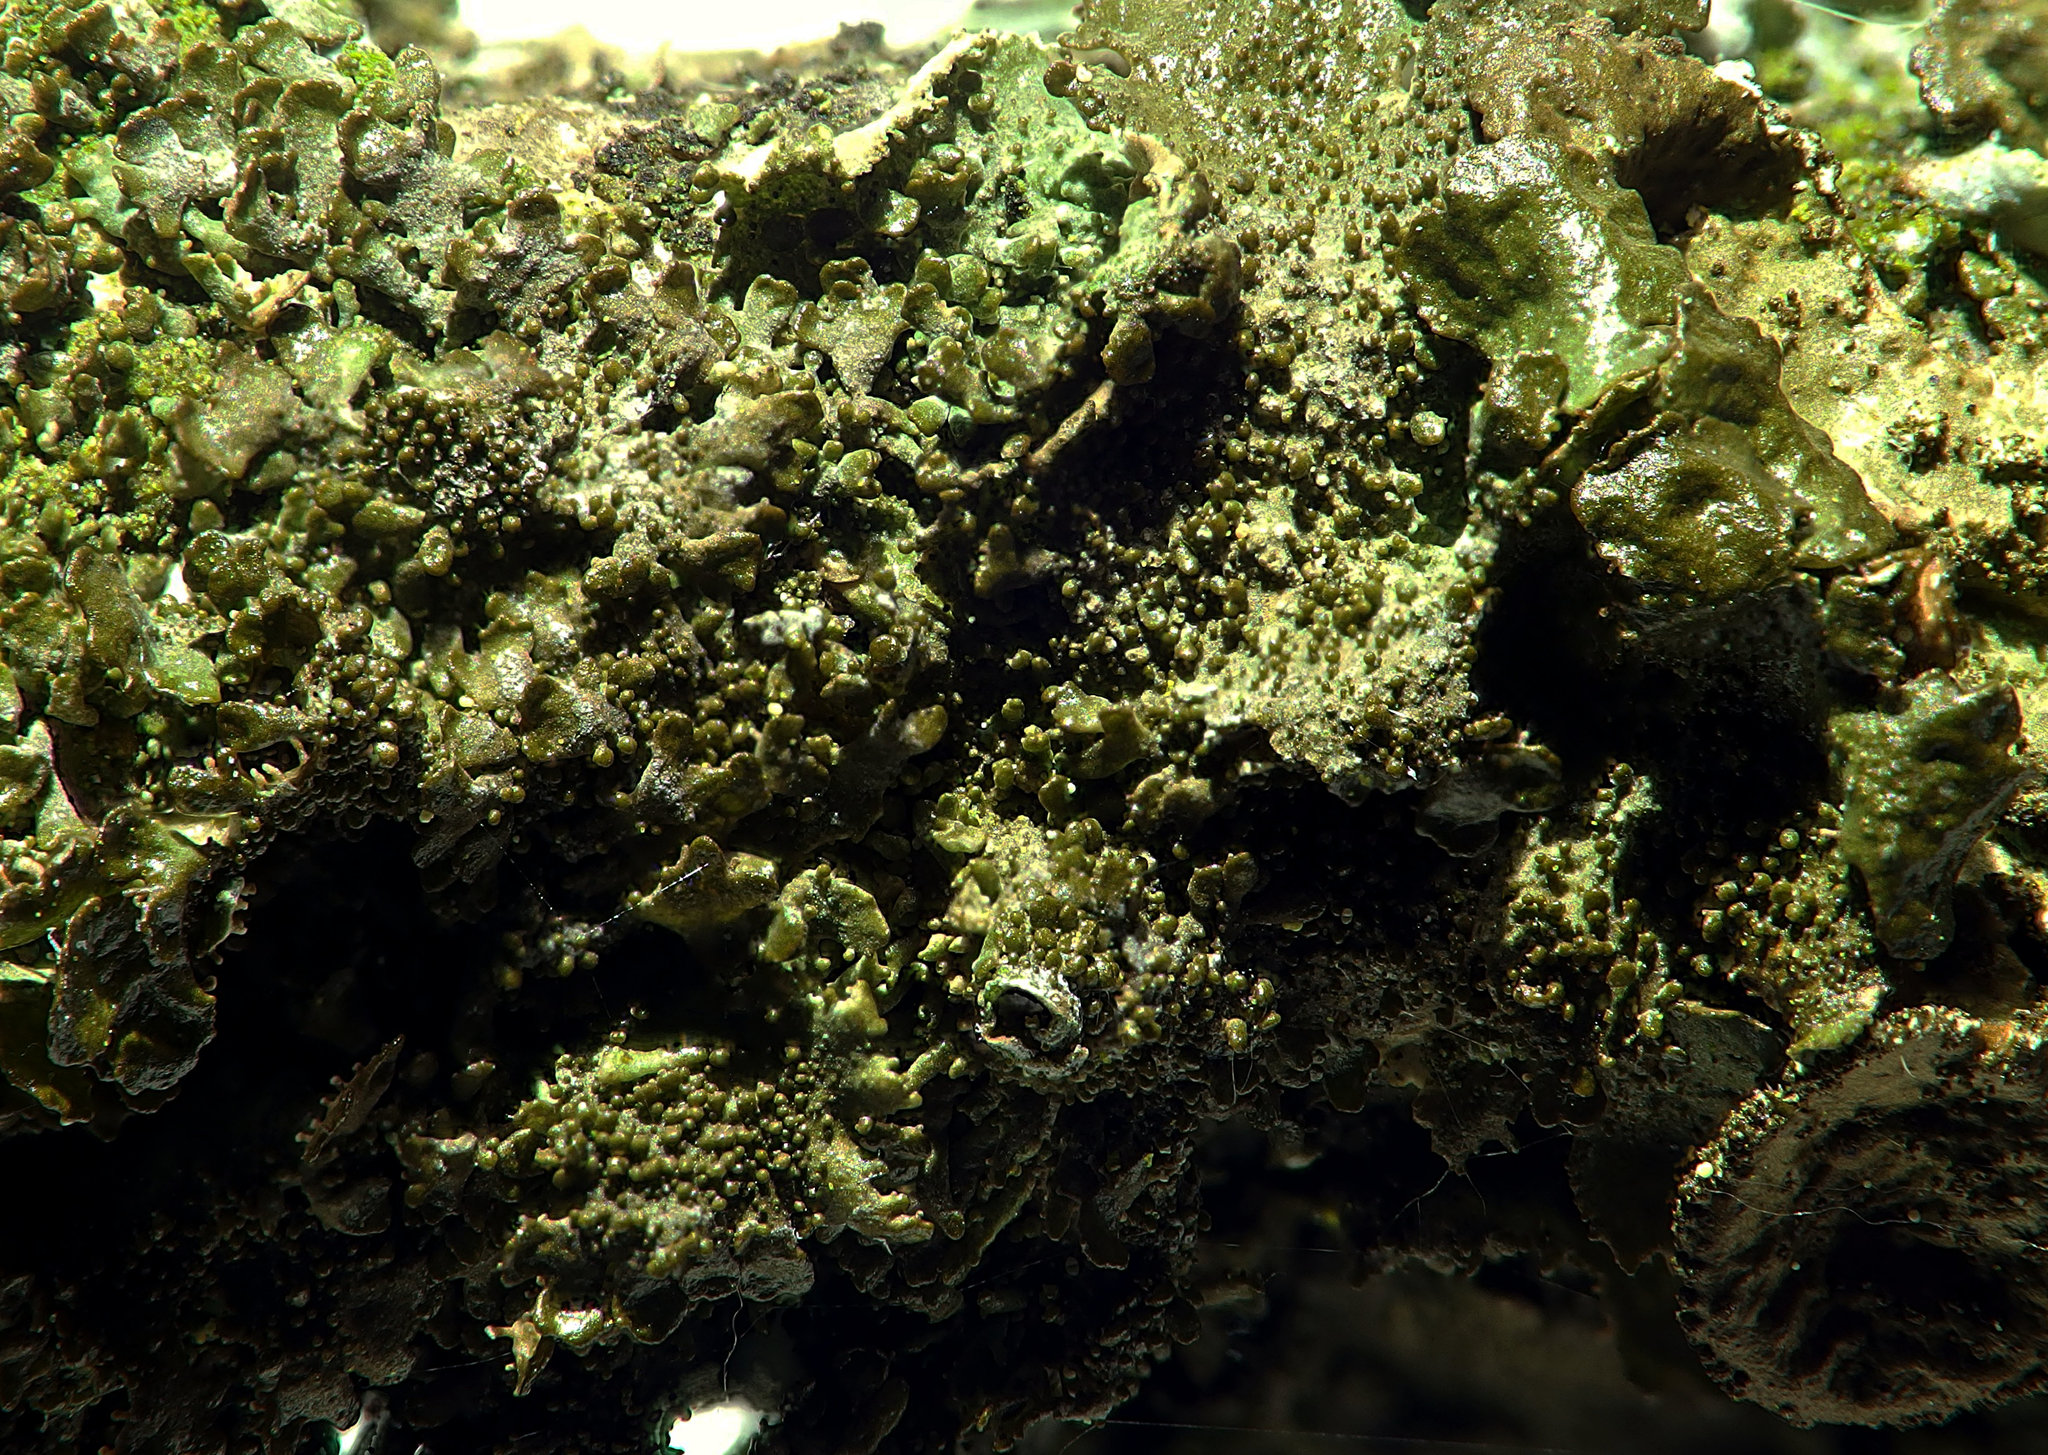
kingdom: Fungi
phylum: Ascomycota
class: Lecanoromycetes
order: Lecanorales
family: Parmeliaceae
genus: Melanohalea
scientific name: Melanohalea exasperatula
